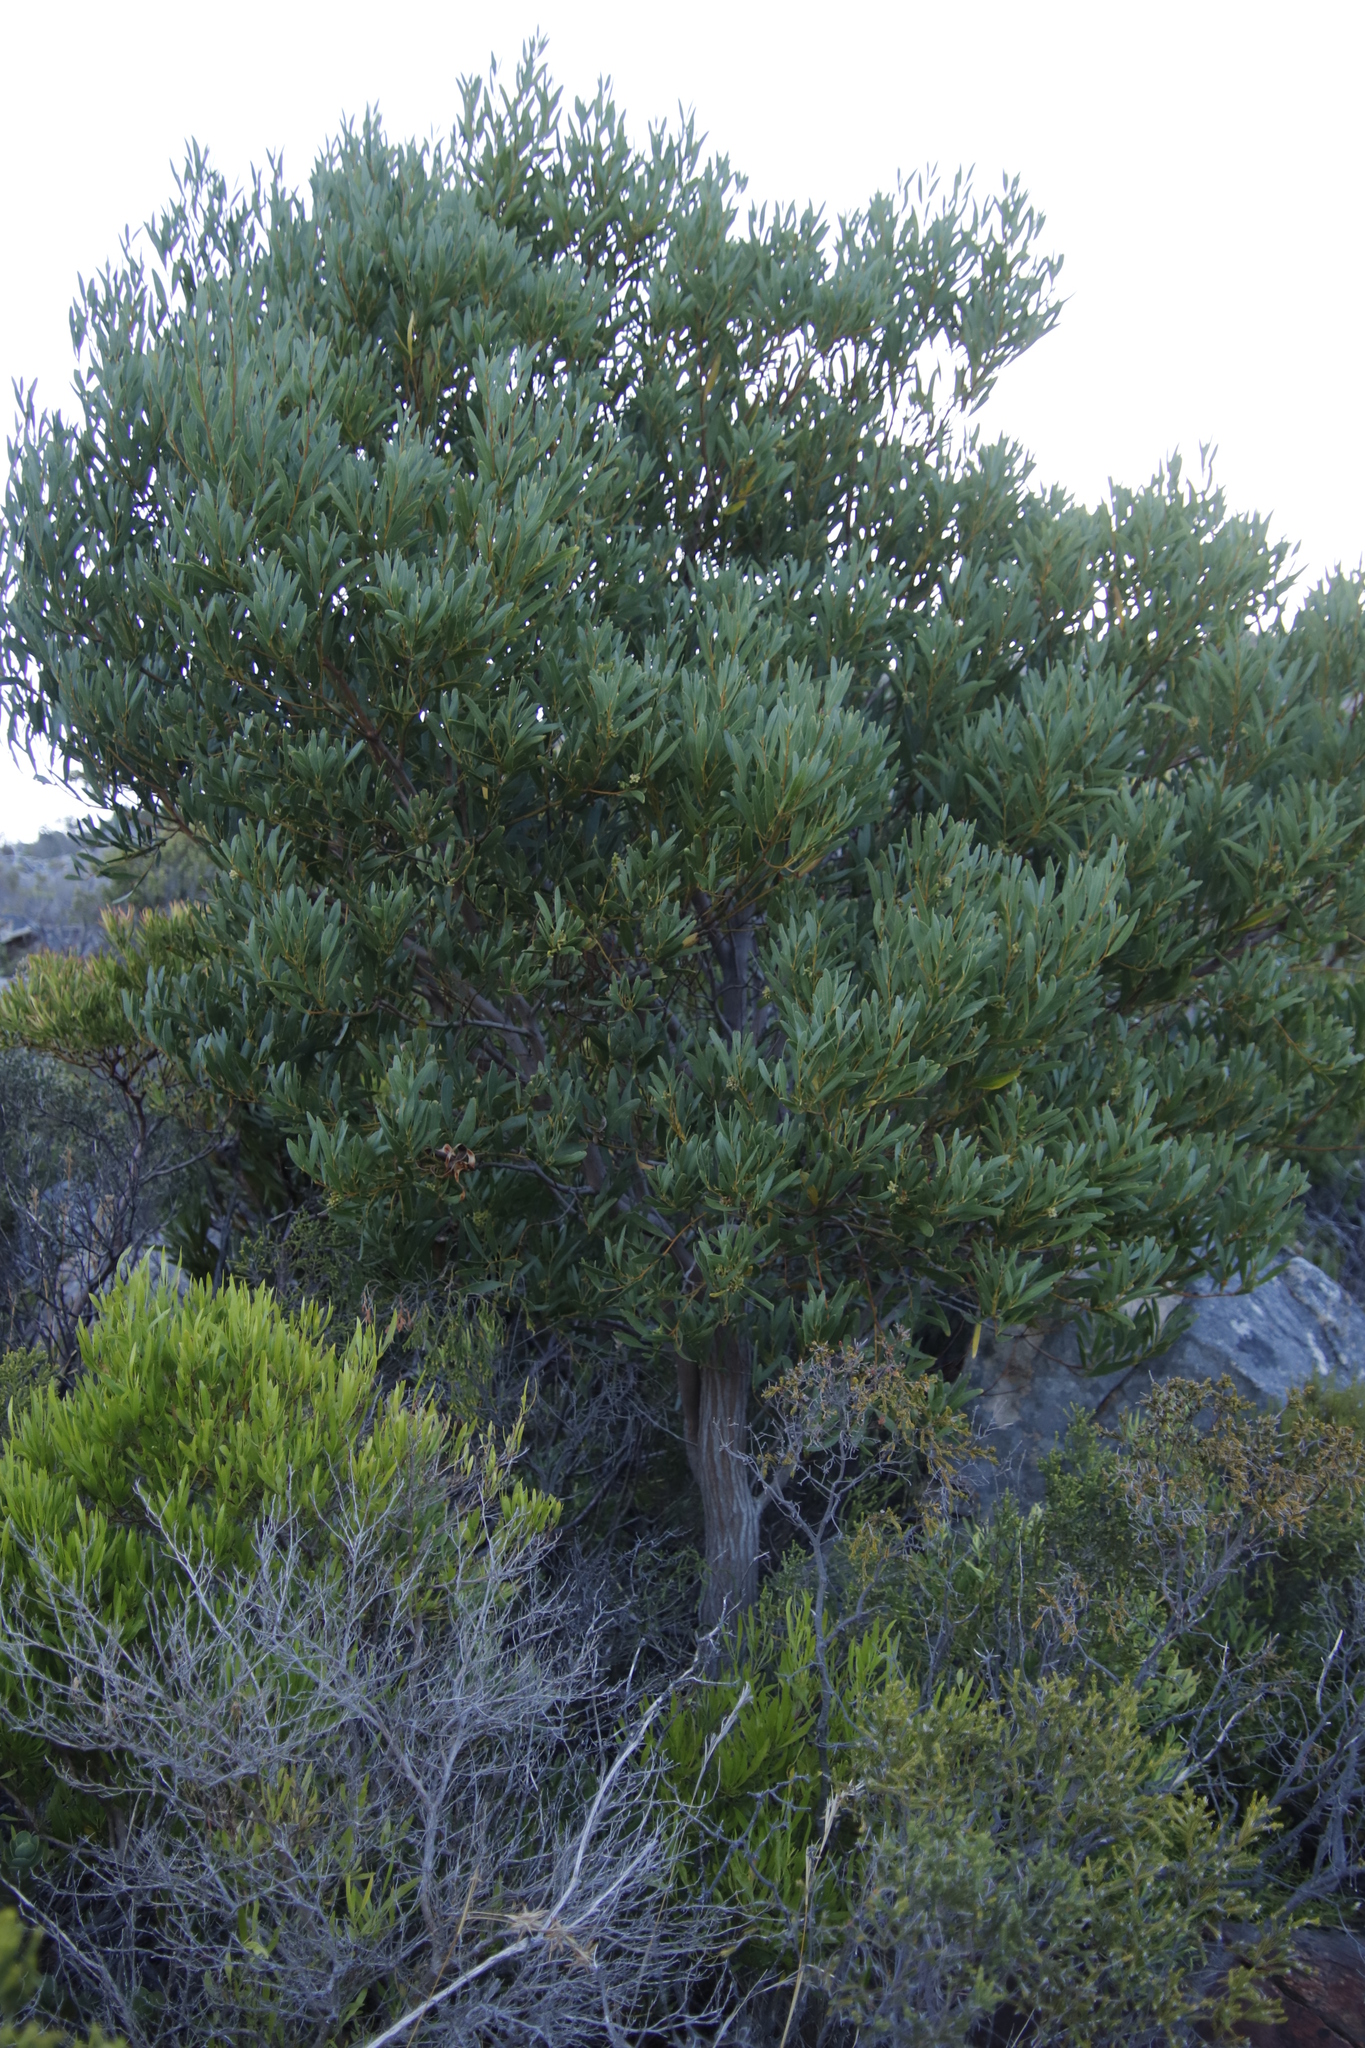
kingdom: Plantae
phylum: Tracheophyta
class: Magnoliopsida
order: Fabales
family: Fabaceae
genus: Acacia
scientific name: Acacia cyclops
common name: Coastal wattle
